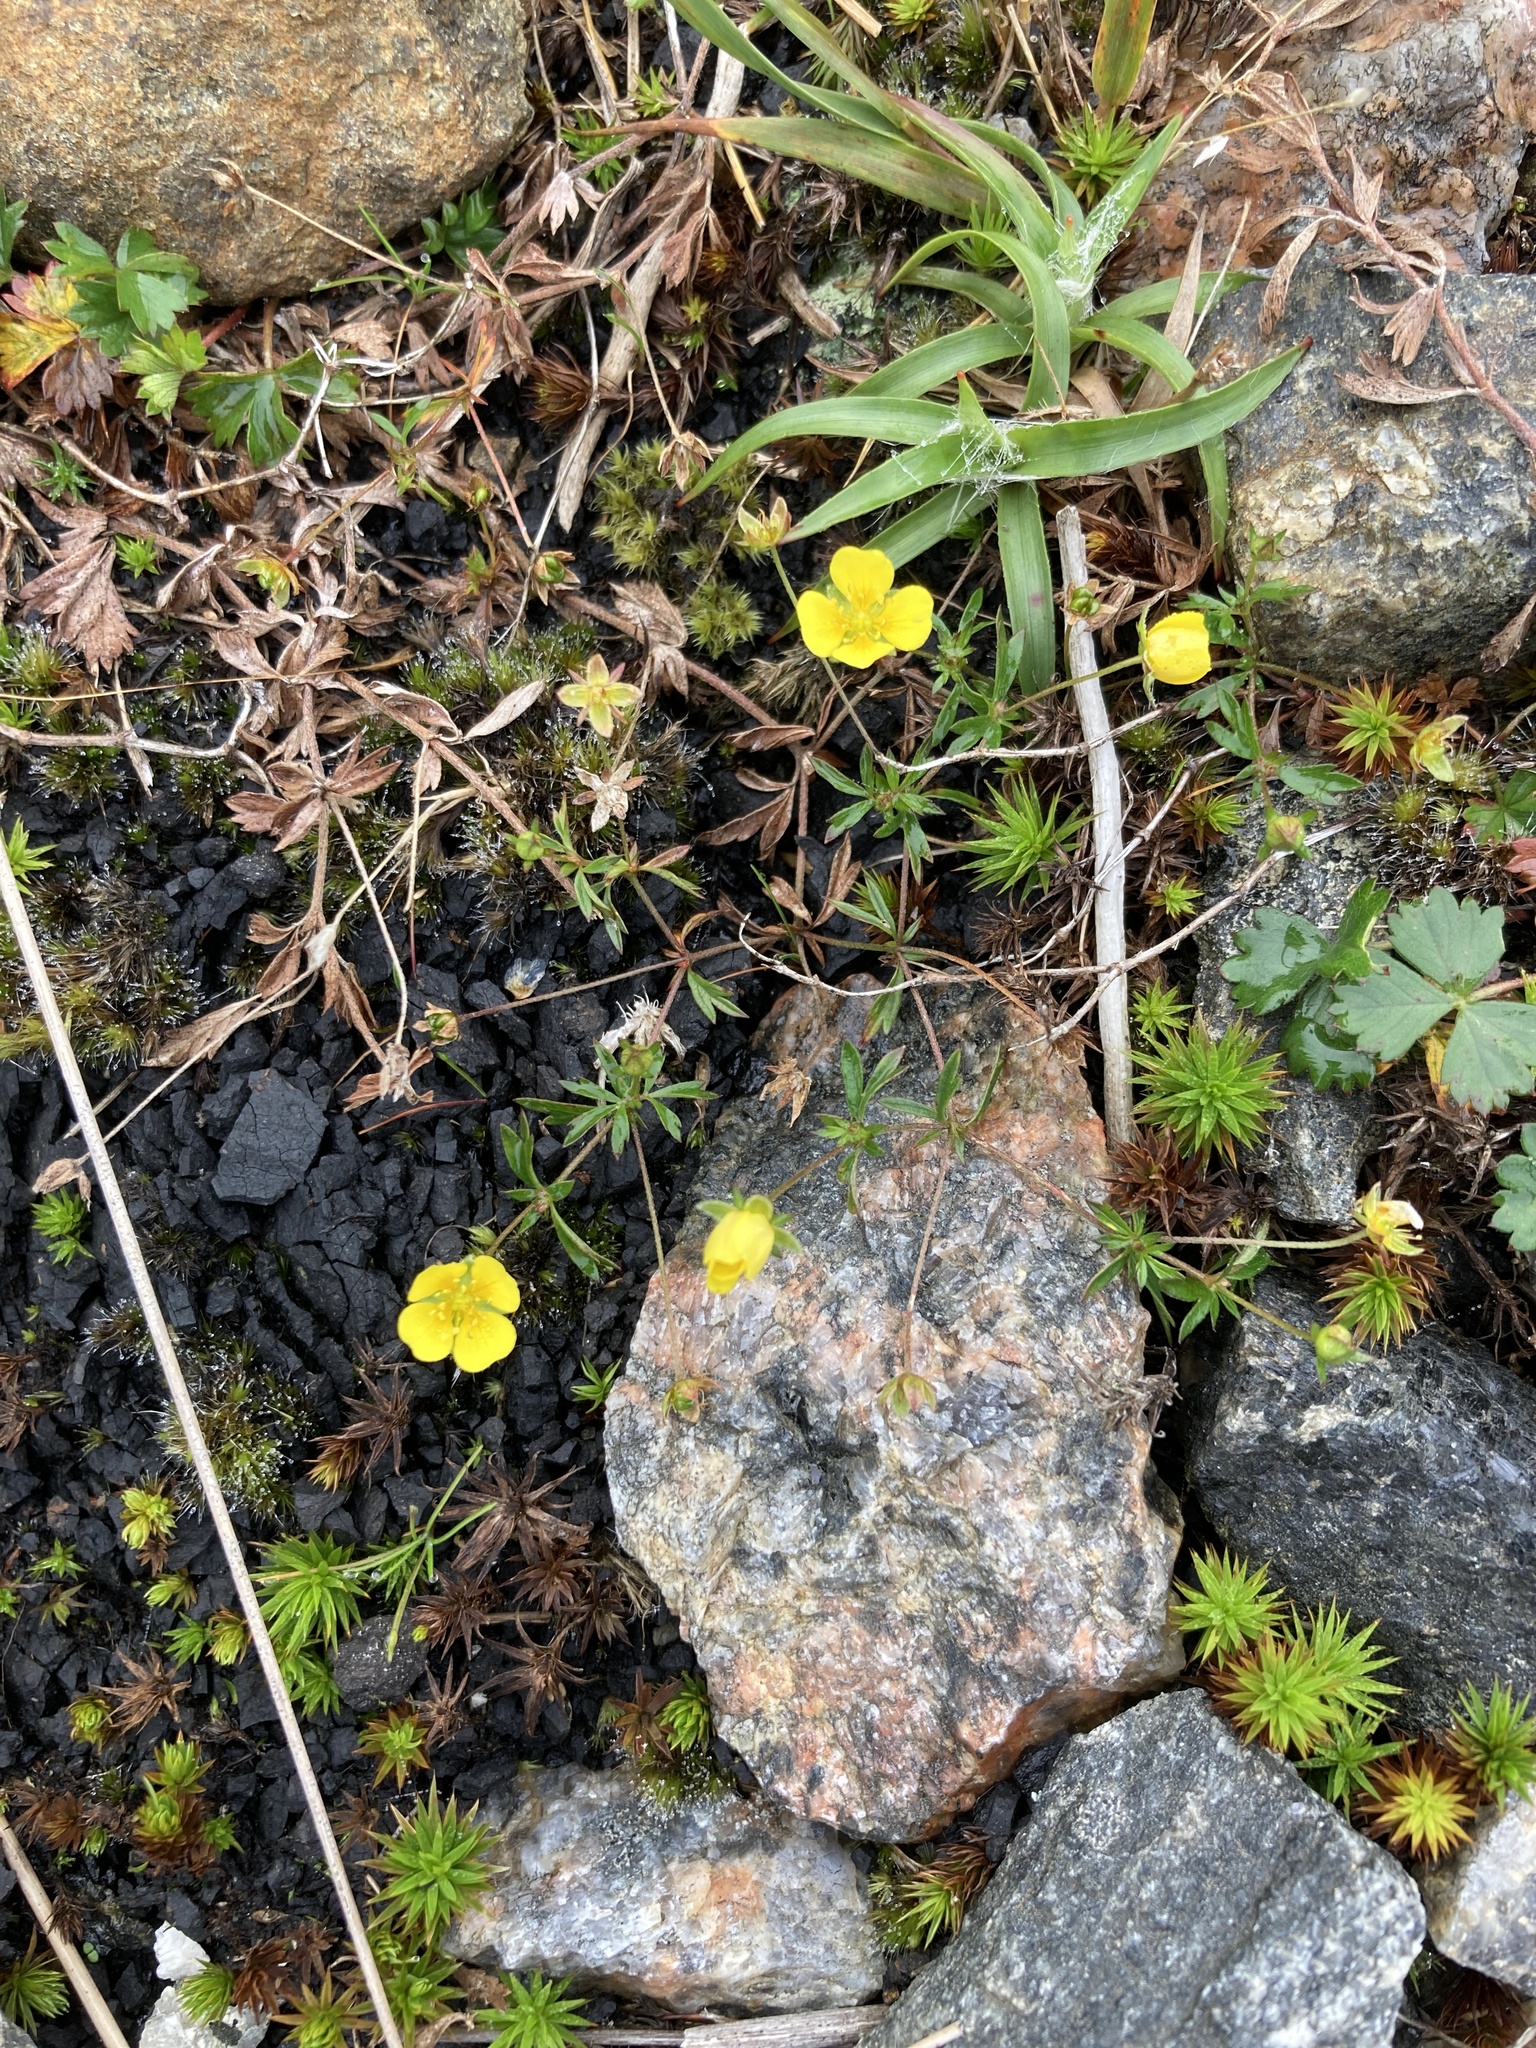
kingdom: Plantae
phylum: Tracheophyta
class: Magnoliopsida
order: Rosales
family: Rosaceae
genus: Potentilla
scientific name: Potentilla erecta
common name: Tormentil
